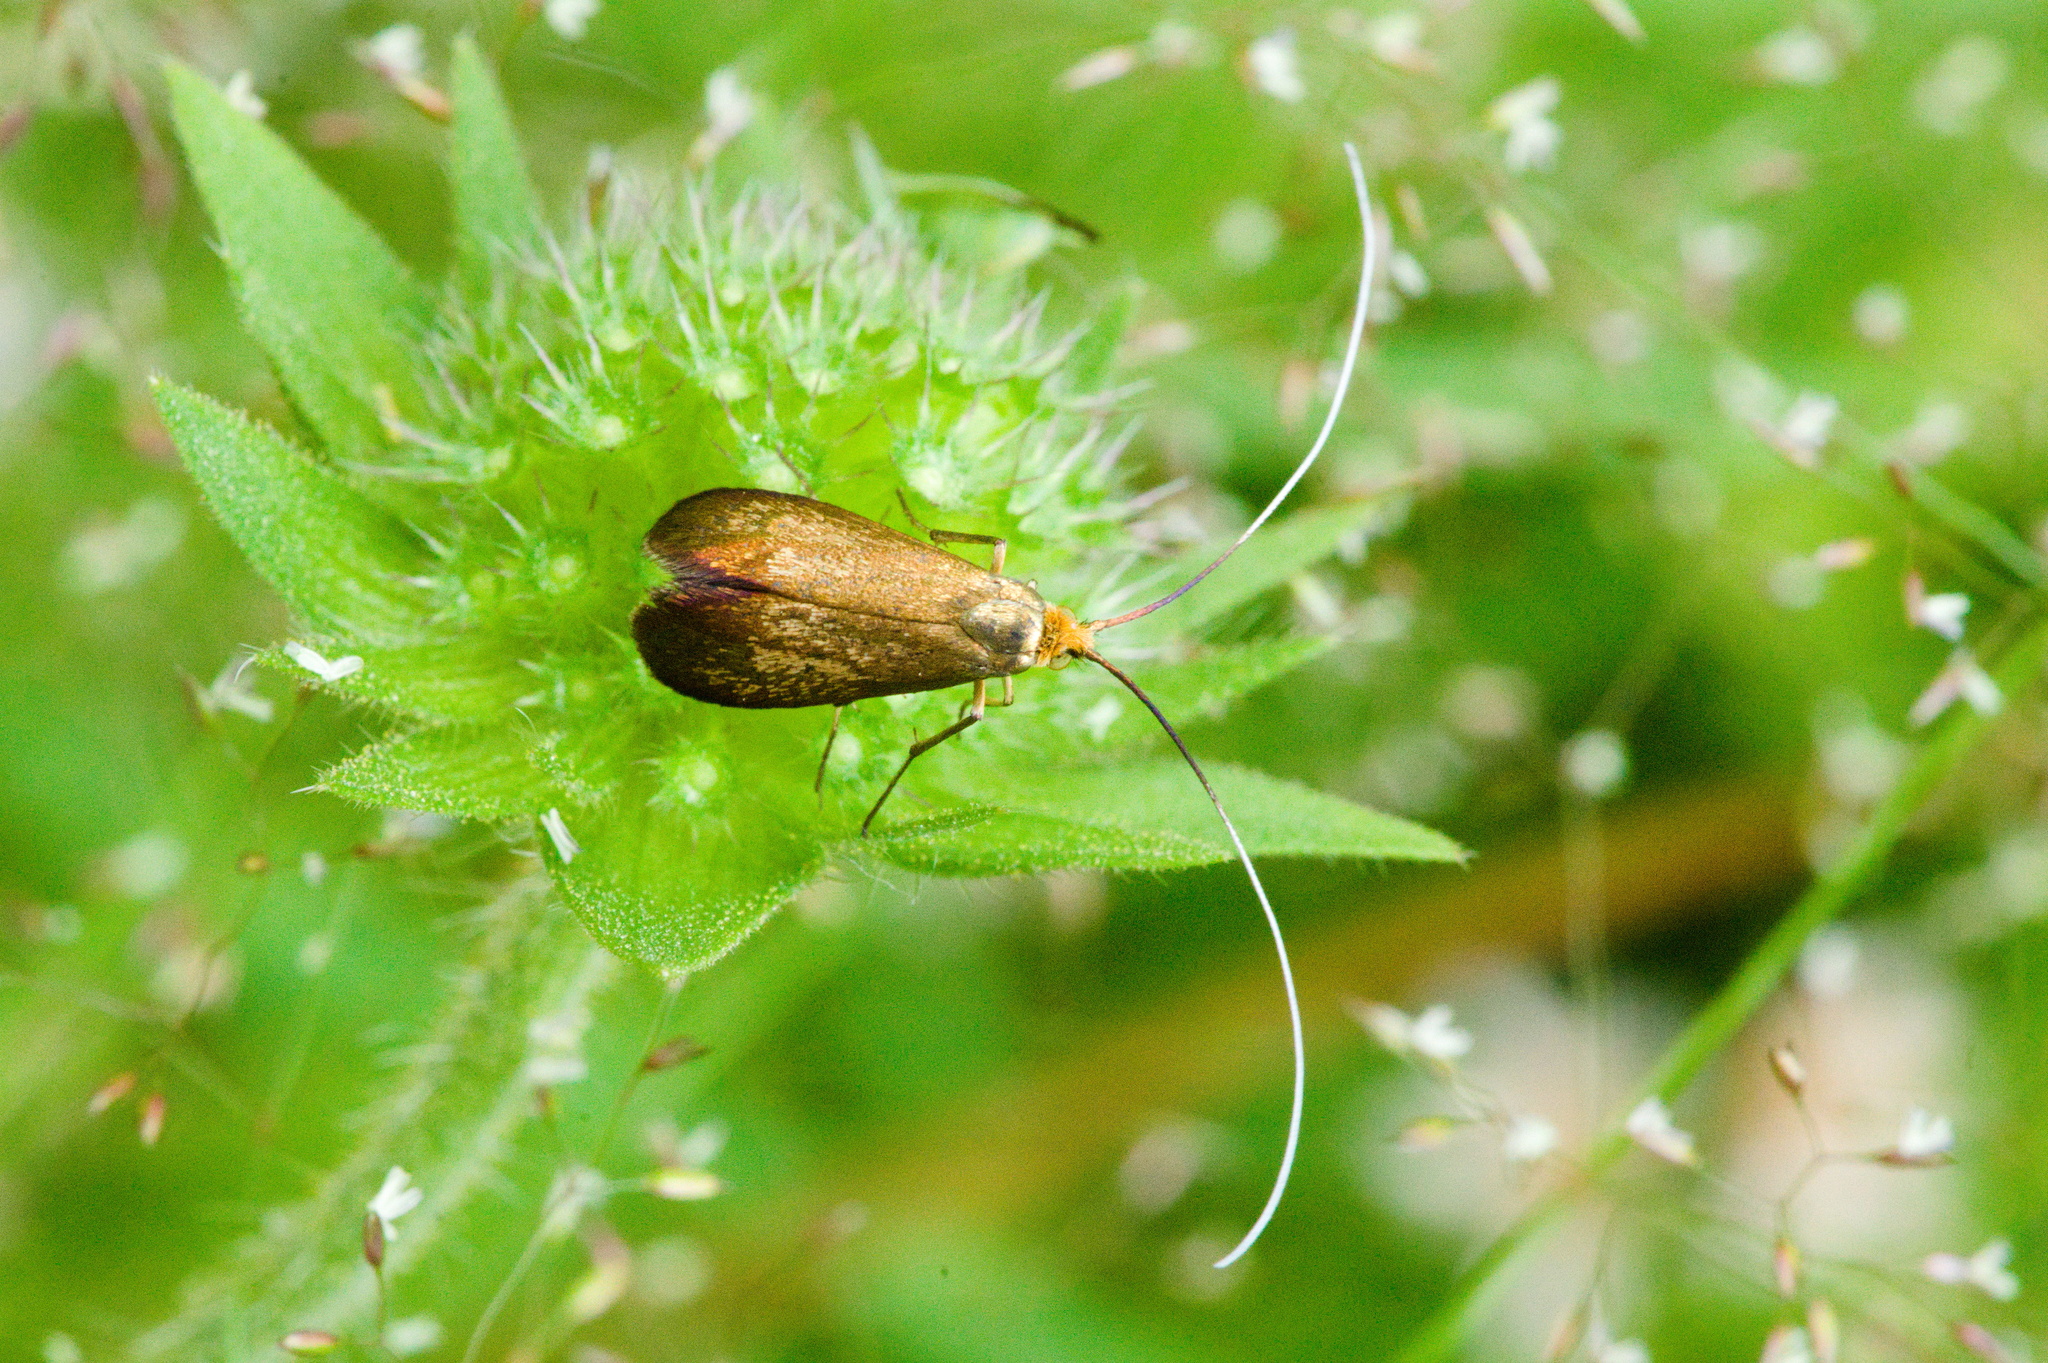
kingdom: Animalia
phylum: Arthropoda
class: Insecta
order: Lepidoptera
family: Adelidae
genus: Nemophora
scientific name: Nemophora metallica
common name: Brassy long-horn
